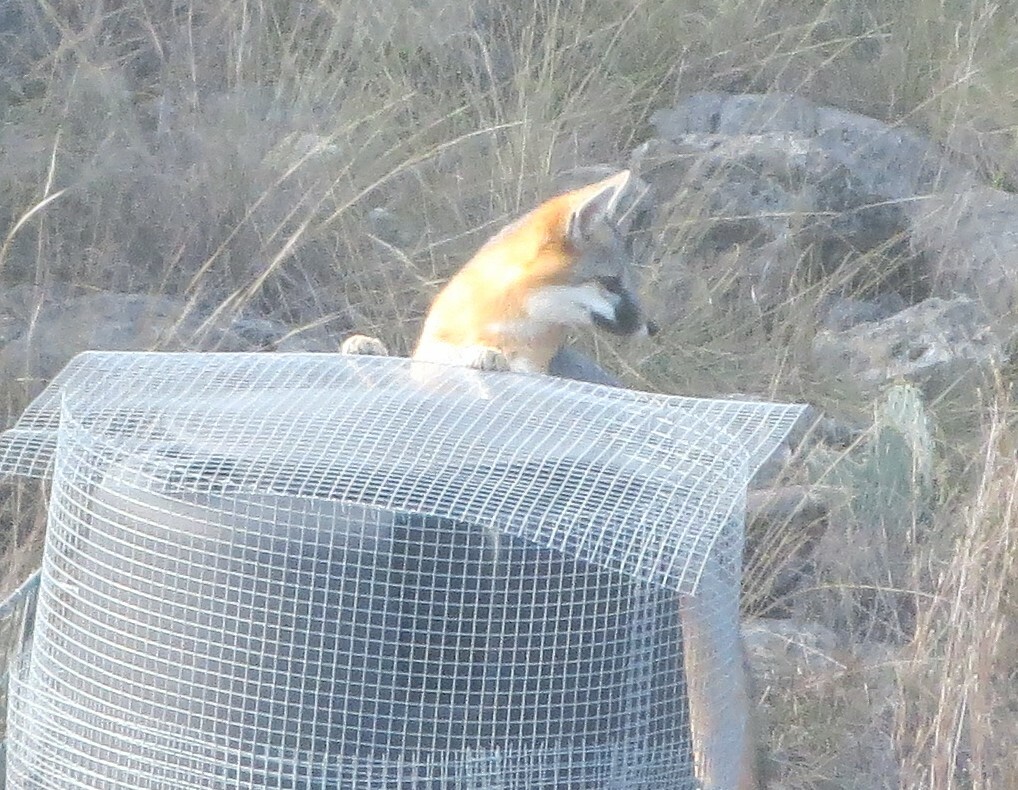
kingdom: Animalia
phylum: Chordata
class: Mammalia
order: Carnivora
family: Canidae
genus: Urocyon
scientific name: Urocyon cinereoargenteus
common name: Gray fox
